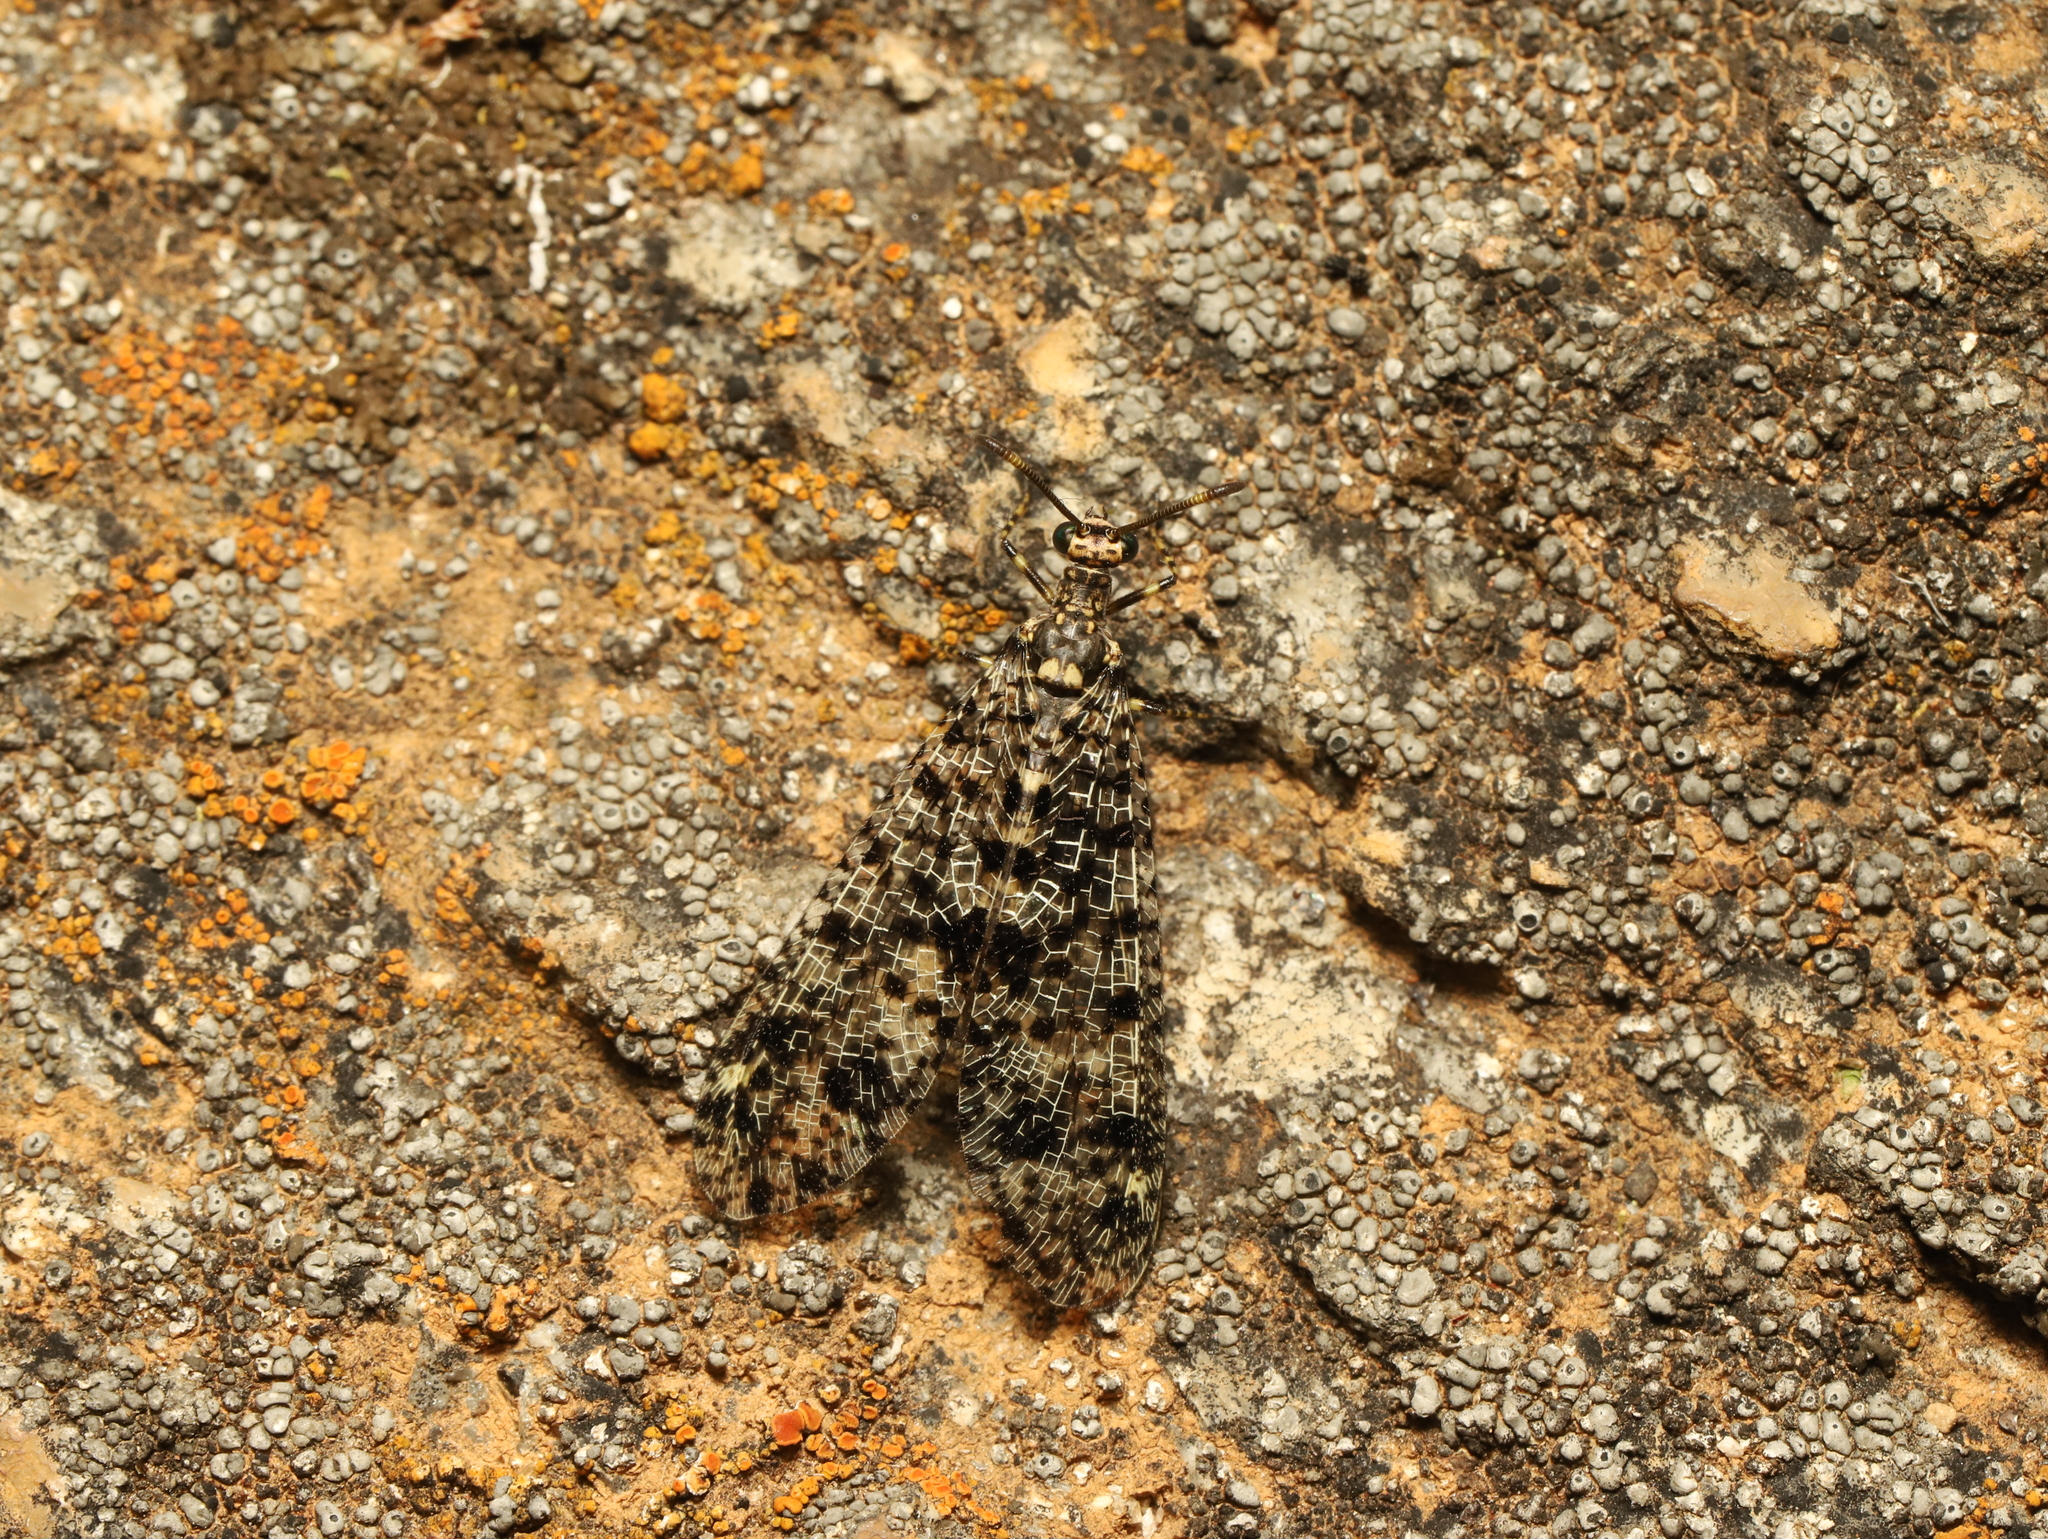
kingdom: Animalia
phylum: Arthropoda
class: Insecta
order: Neuroptera
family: Myrmeleontidae
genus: Glenoleon
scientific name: Glenoleon maculatus
